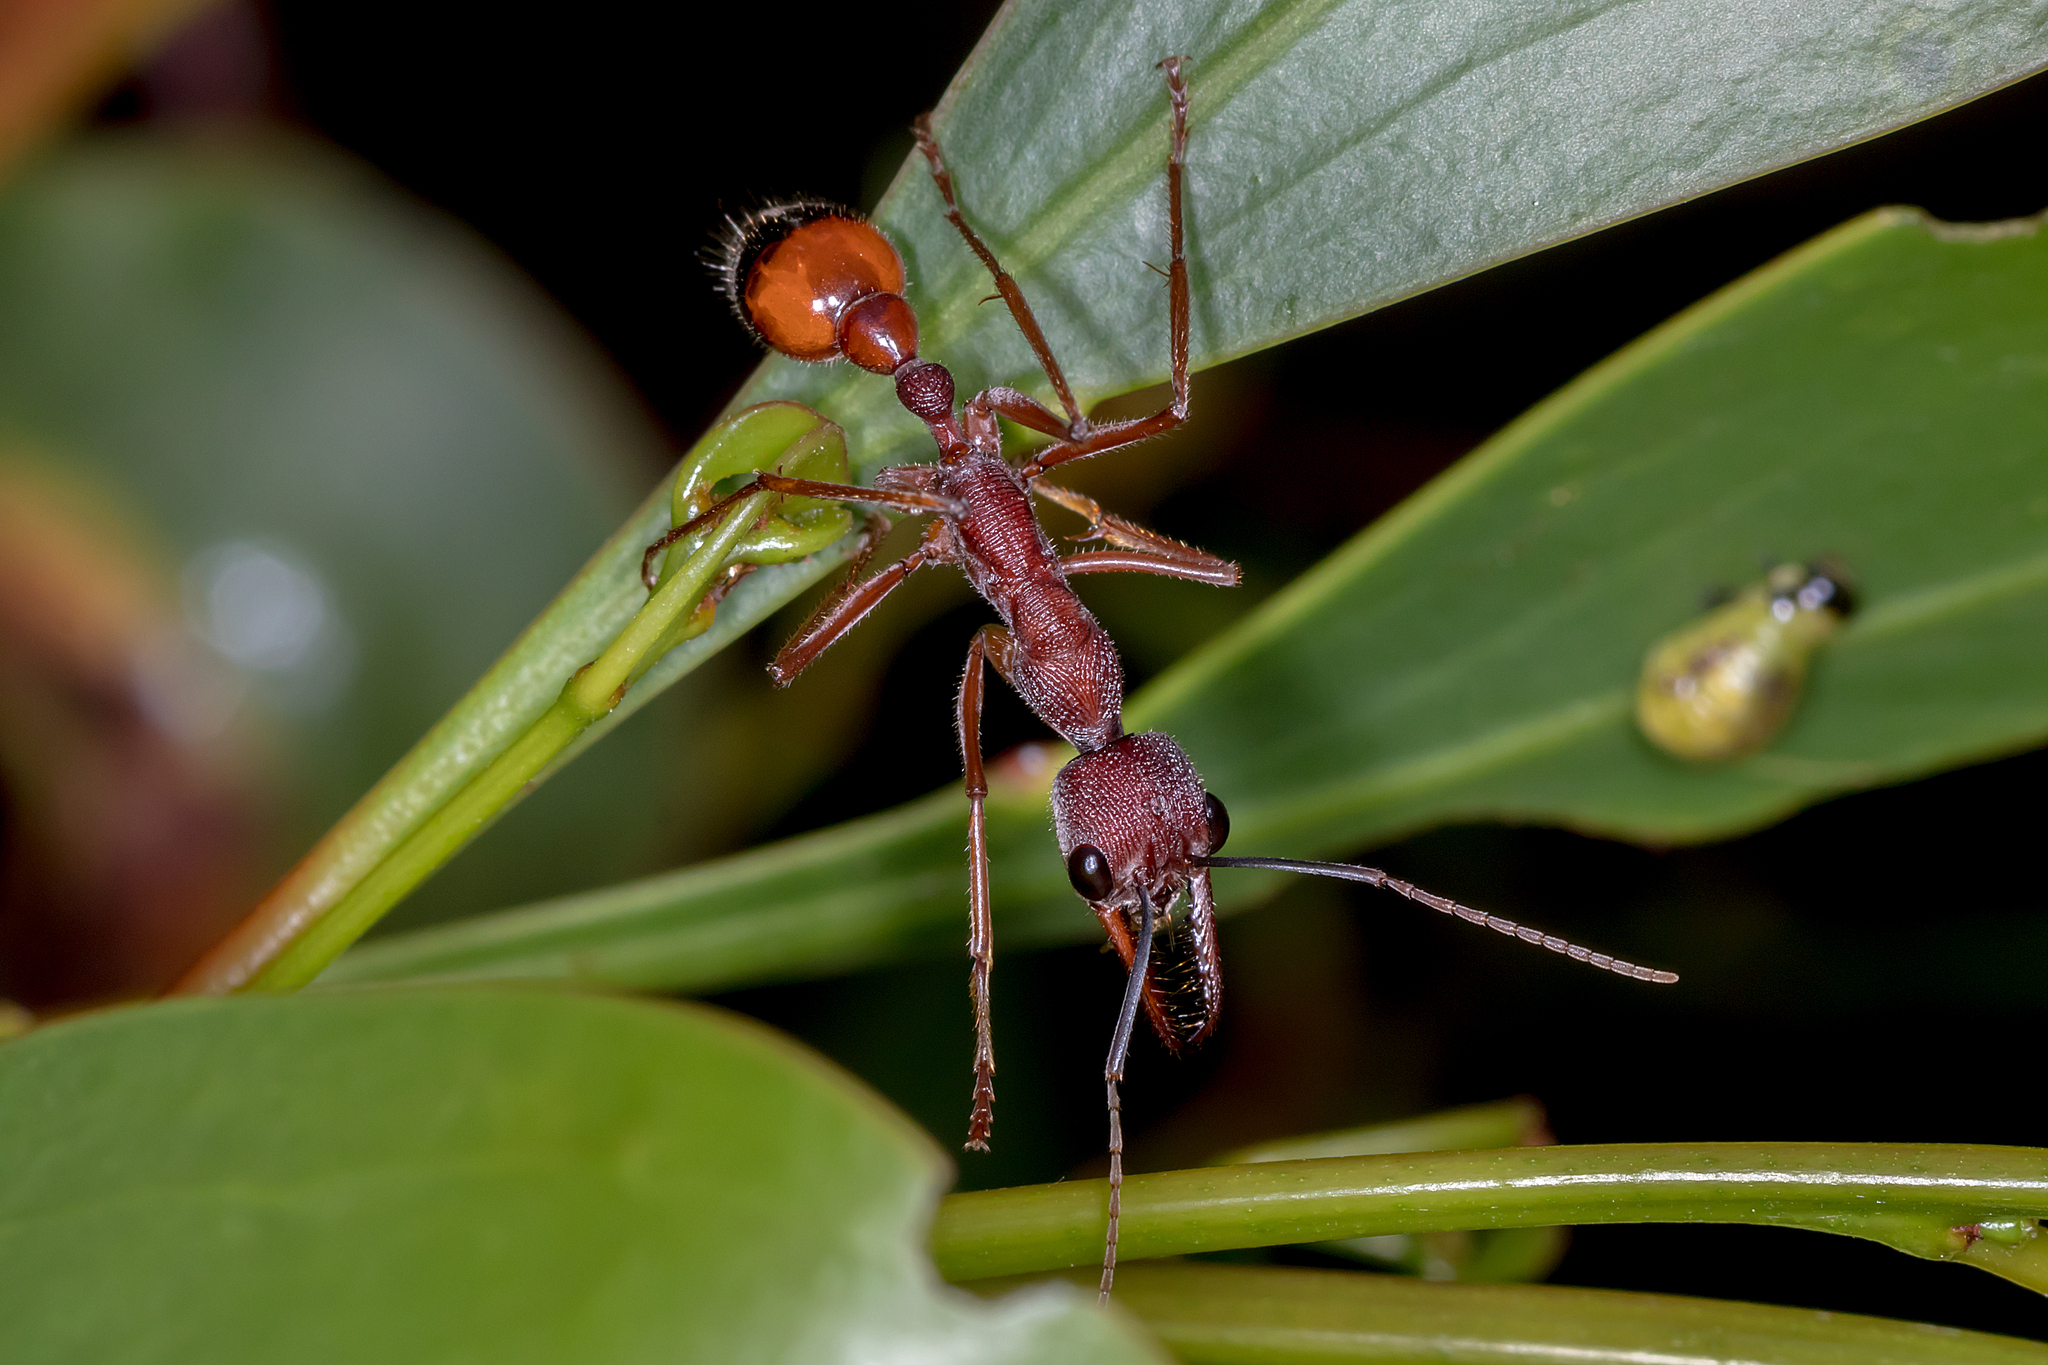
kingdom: Animalia
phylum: Arthropoda
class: Insecta
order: Hymenoptera
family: Formicidae
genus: Myrmecia
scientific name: Myrmecia nigriscapa
